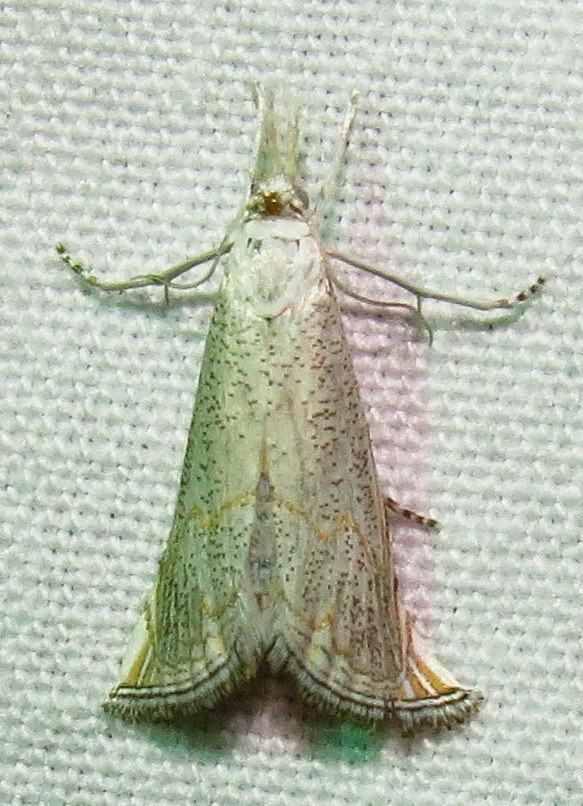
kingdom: Animalia
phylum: Arthropoda
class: Insecta
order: Lepidoptera
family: Crambidae
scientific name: Crambidae
